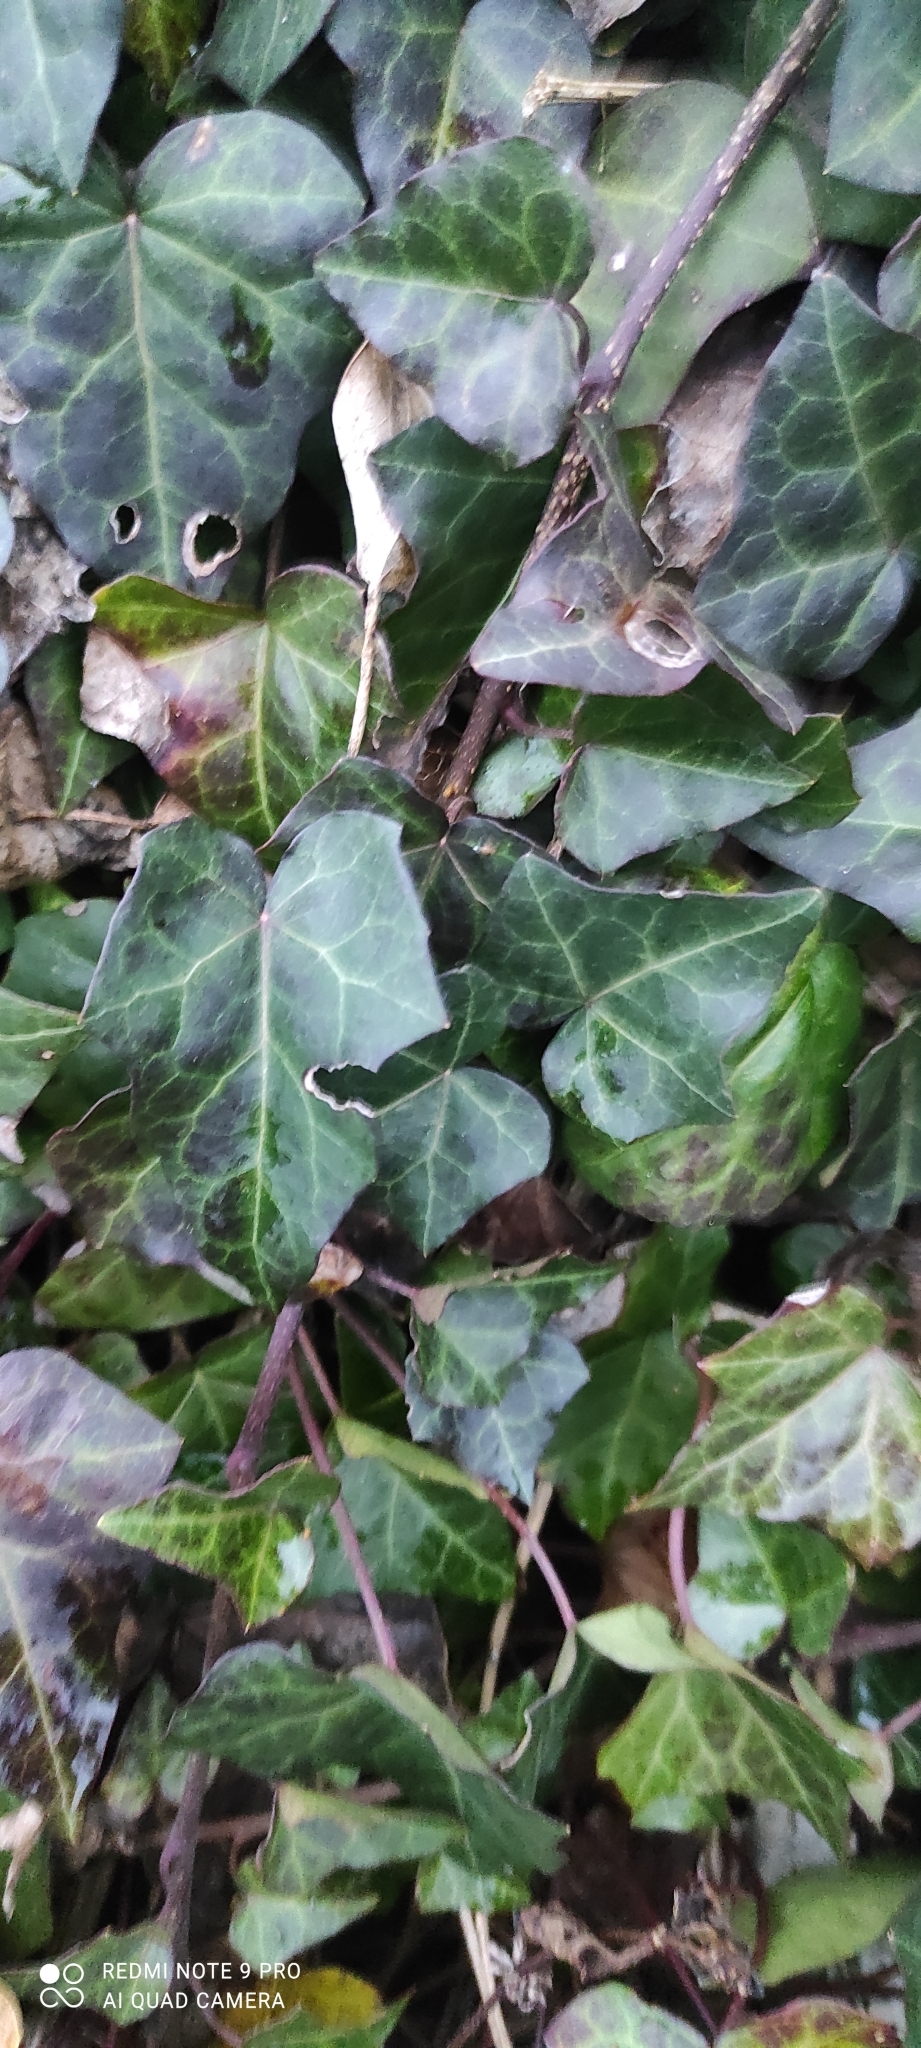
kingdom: Plantae
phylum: Tracheophyta
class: Magnoliopsida
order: Apiales
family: Araliaceae
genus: Hedera
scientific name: Hedera helix
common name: Ivy
